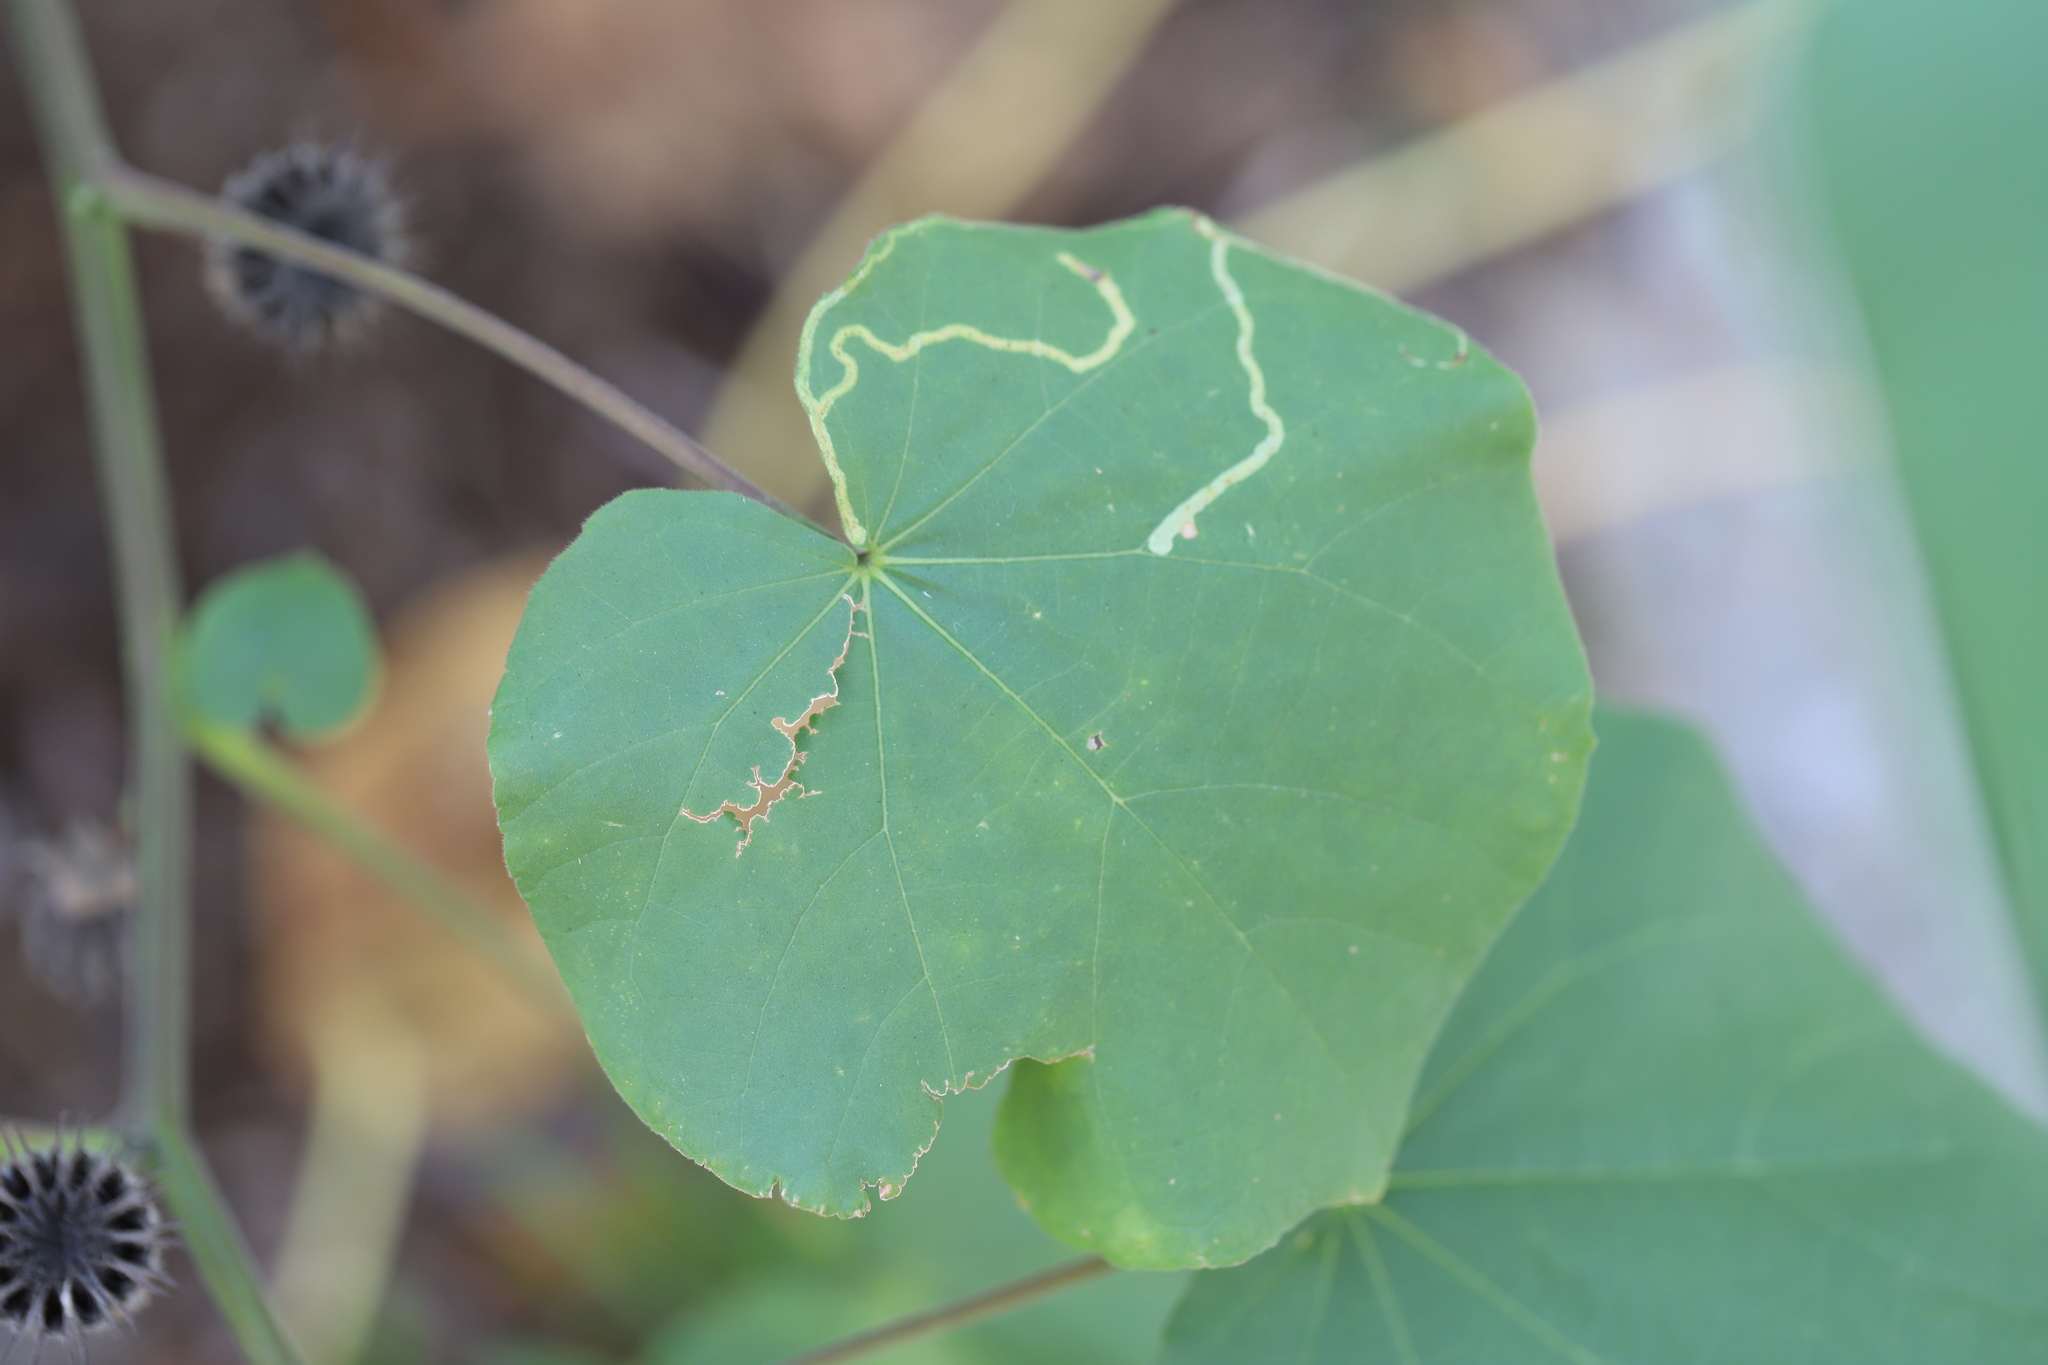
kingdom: Animalia
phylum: Arthropoda
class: Insecta
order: Diptera
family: Agromyzidae
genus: Calycomyza
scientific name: Calycomyza malvae
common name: Mallow leaf miner
